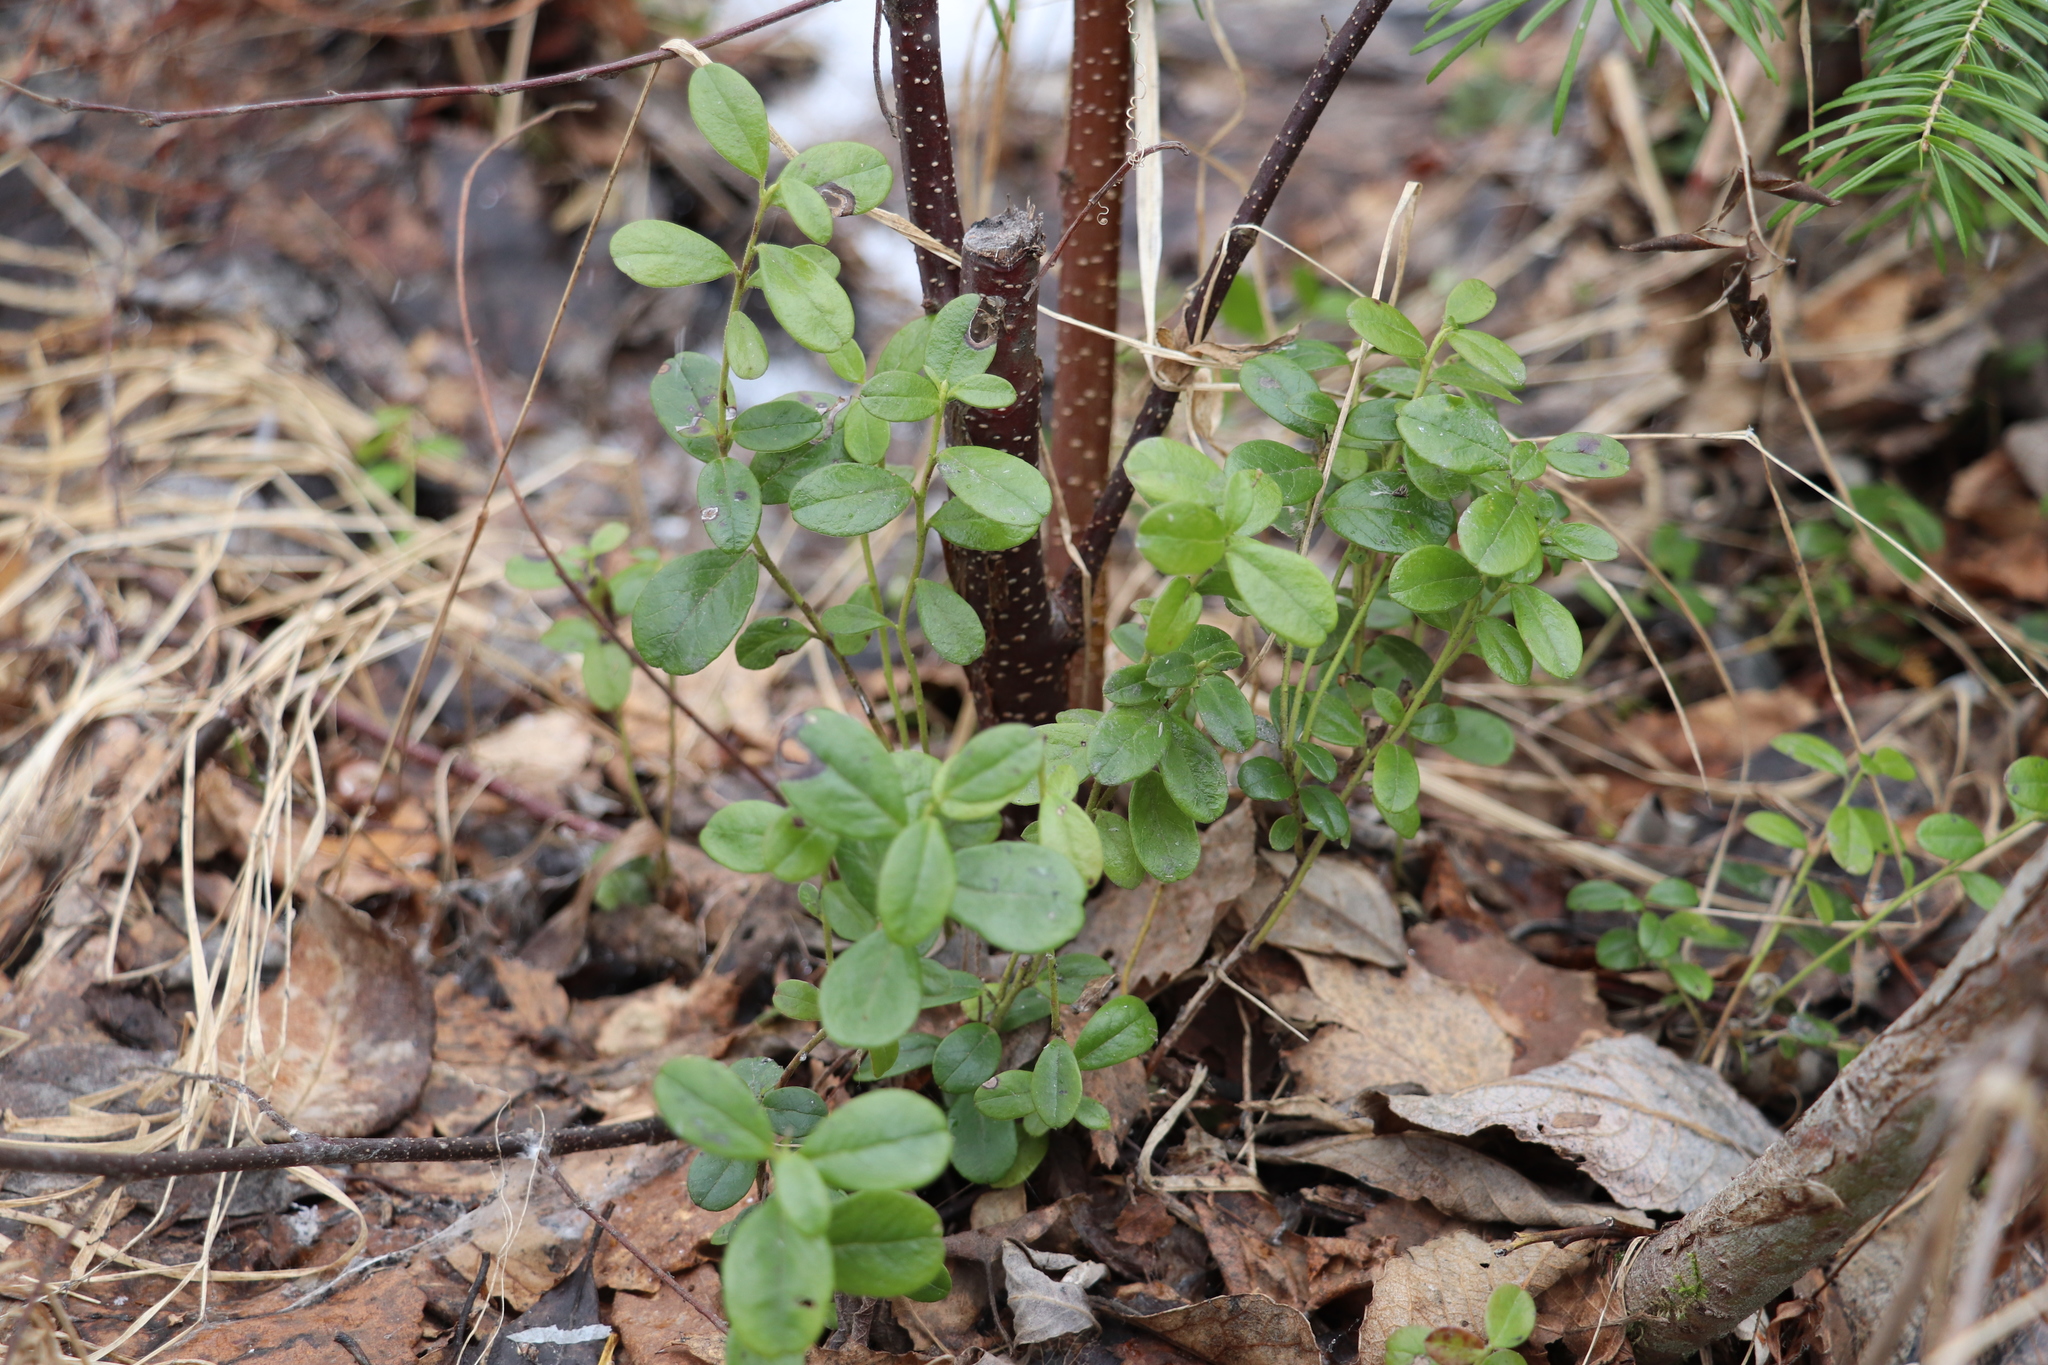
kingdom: Plantae
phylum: Tracheophyta
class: Magnoliopsida
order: Ericales
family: Ericaceae
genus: Vaccinium
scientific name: Vaccinium vitis-idaea
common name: Cowberry
